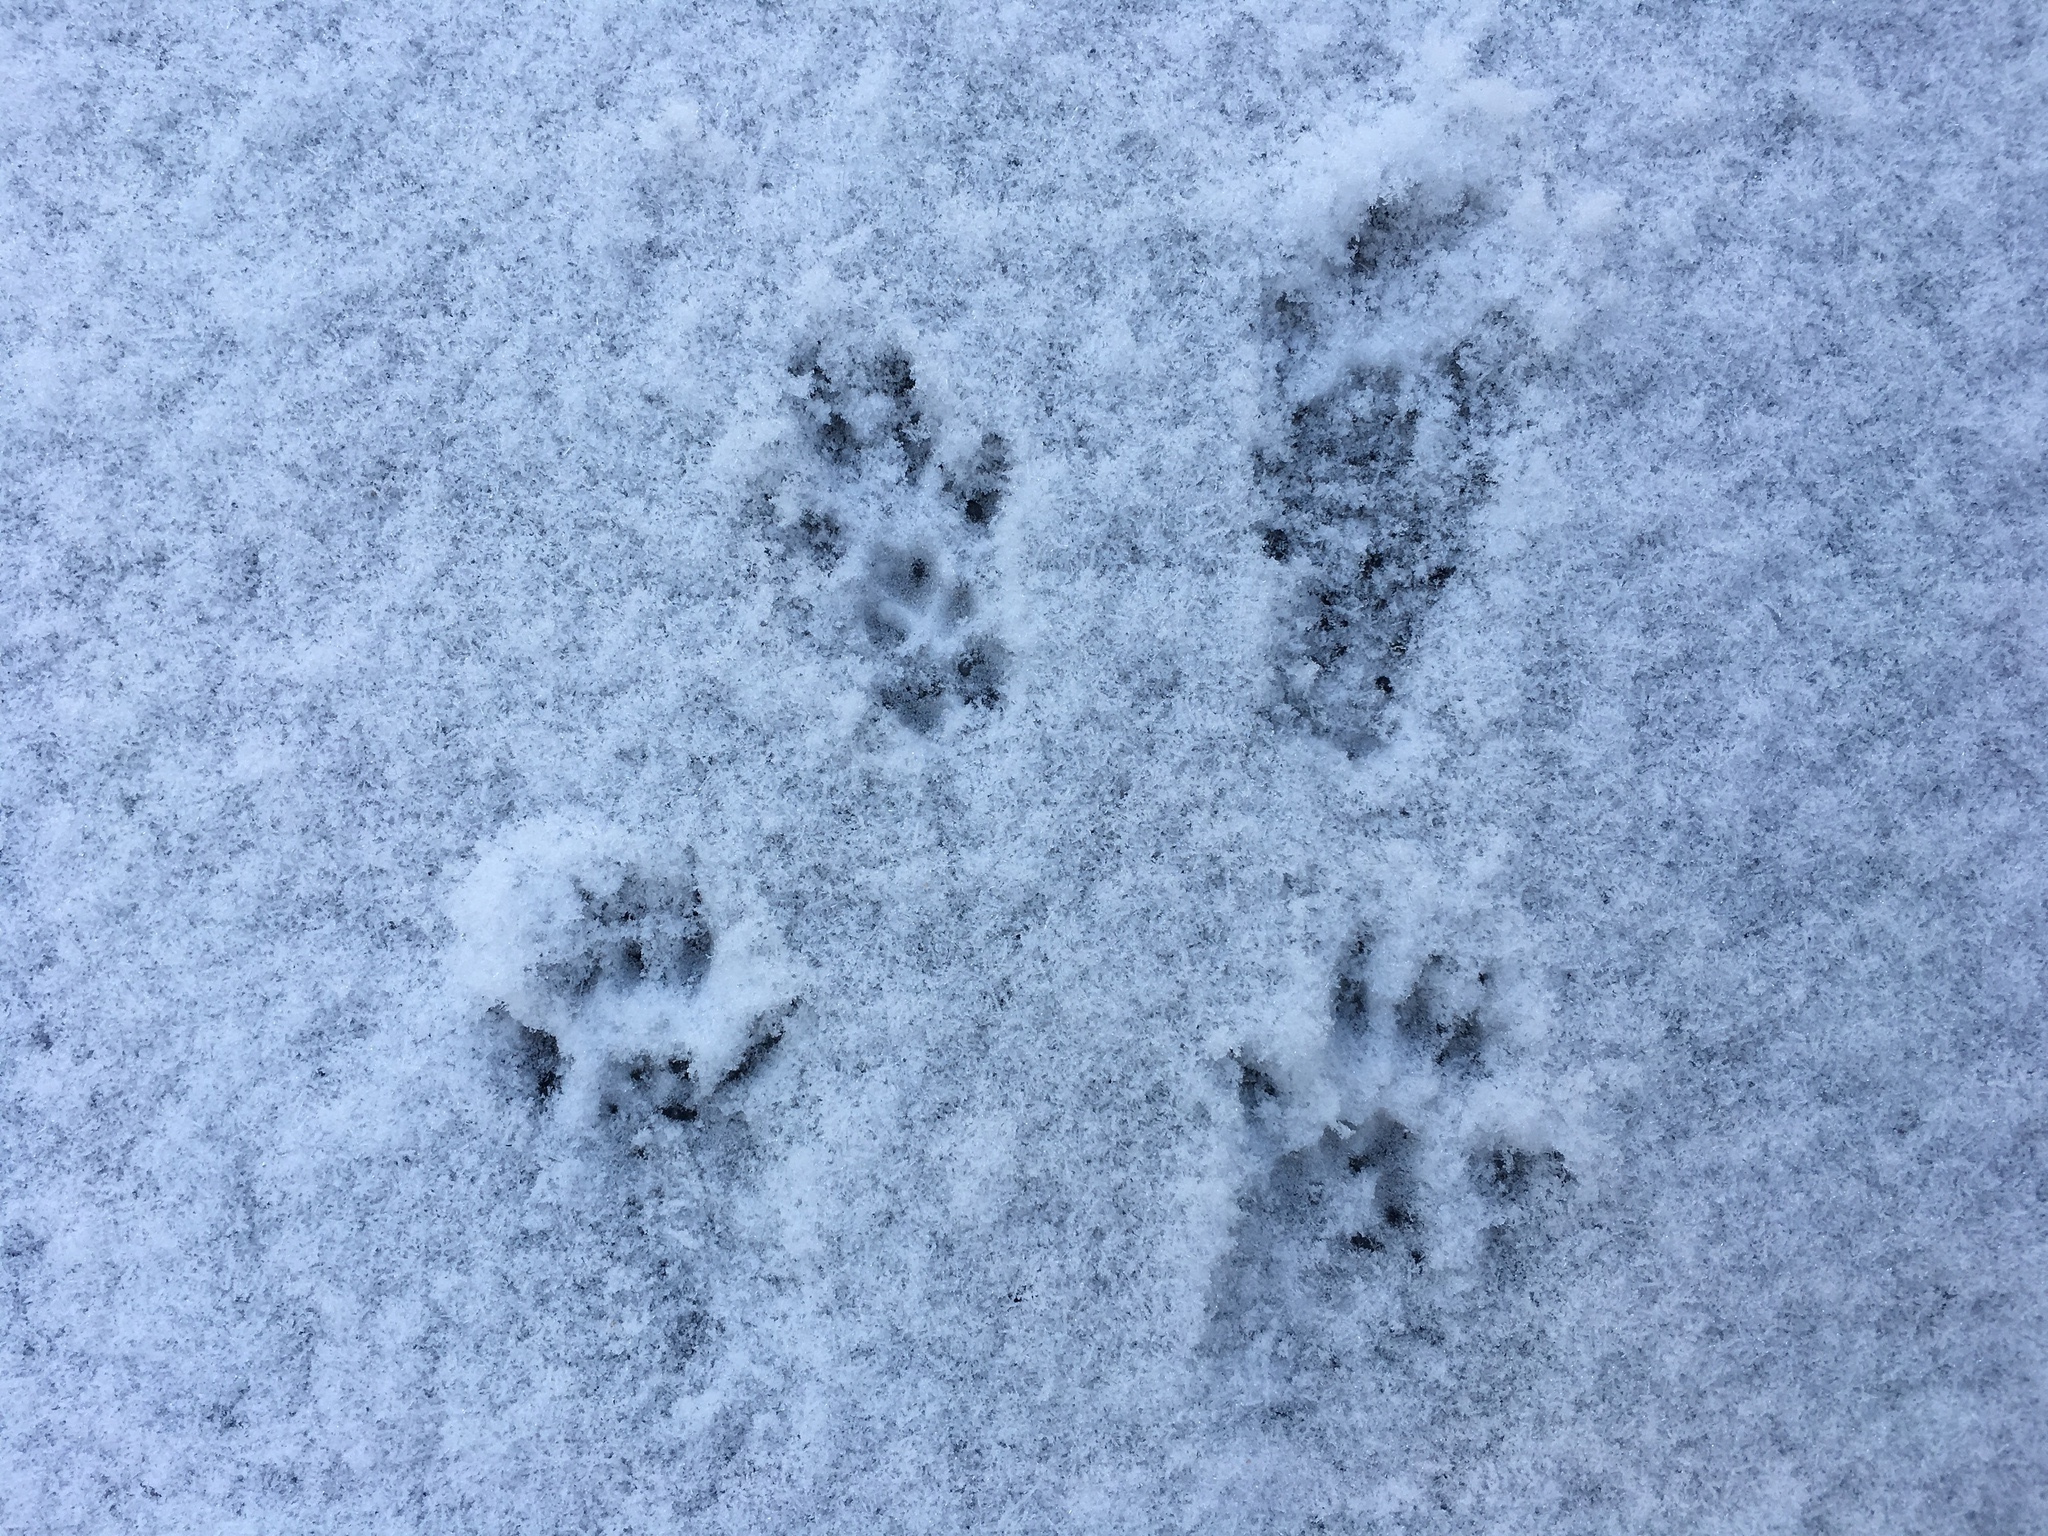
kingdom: Animalia
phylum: Chordata
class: Mammalia
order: Rodentia
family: Sciuridae
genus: Sciurus
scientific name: Sciurus carolinensis
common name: Eastern gray squirrel
